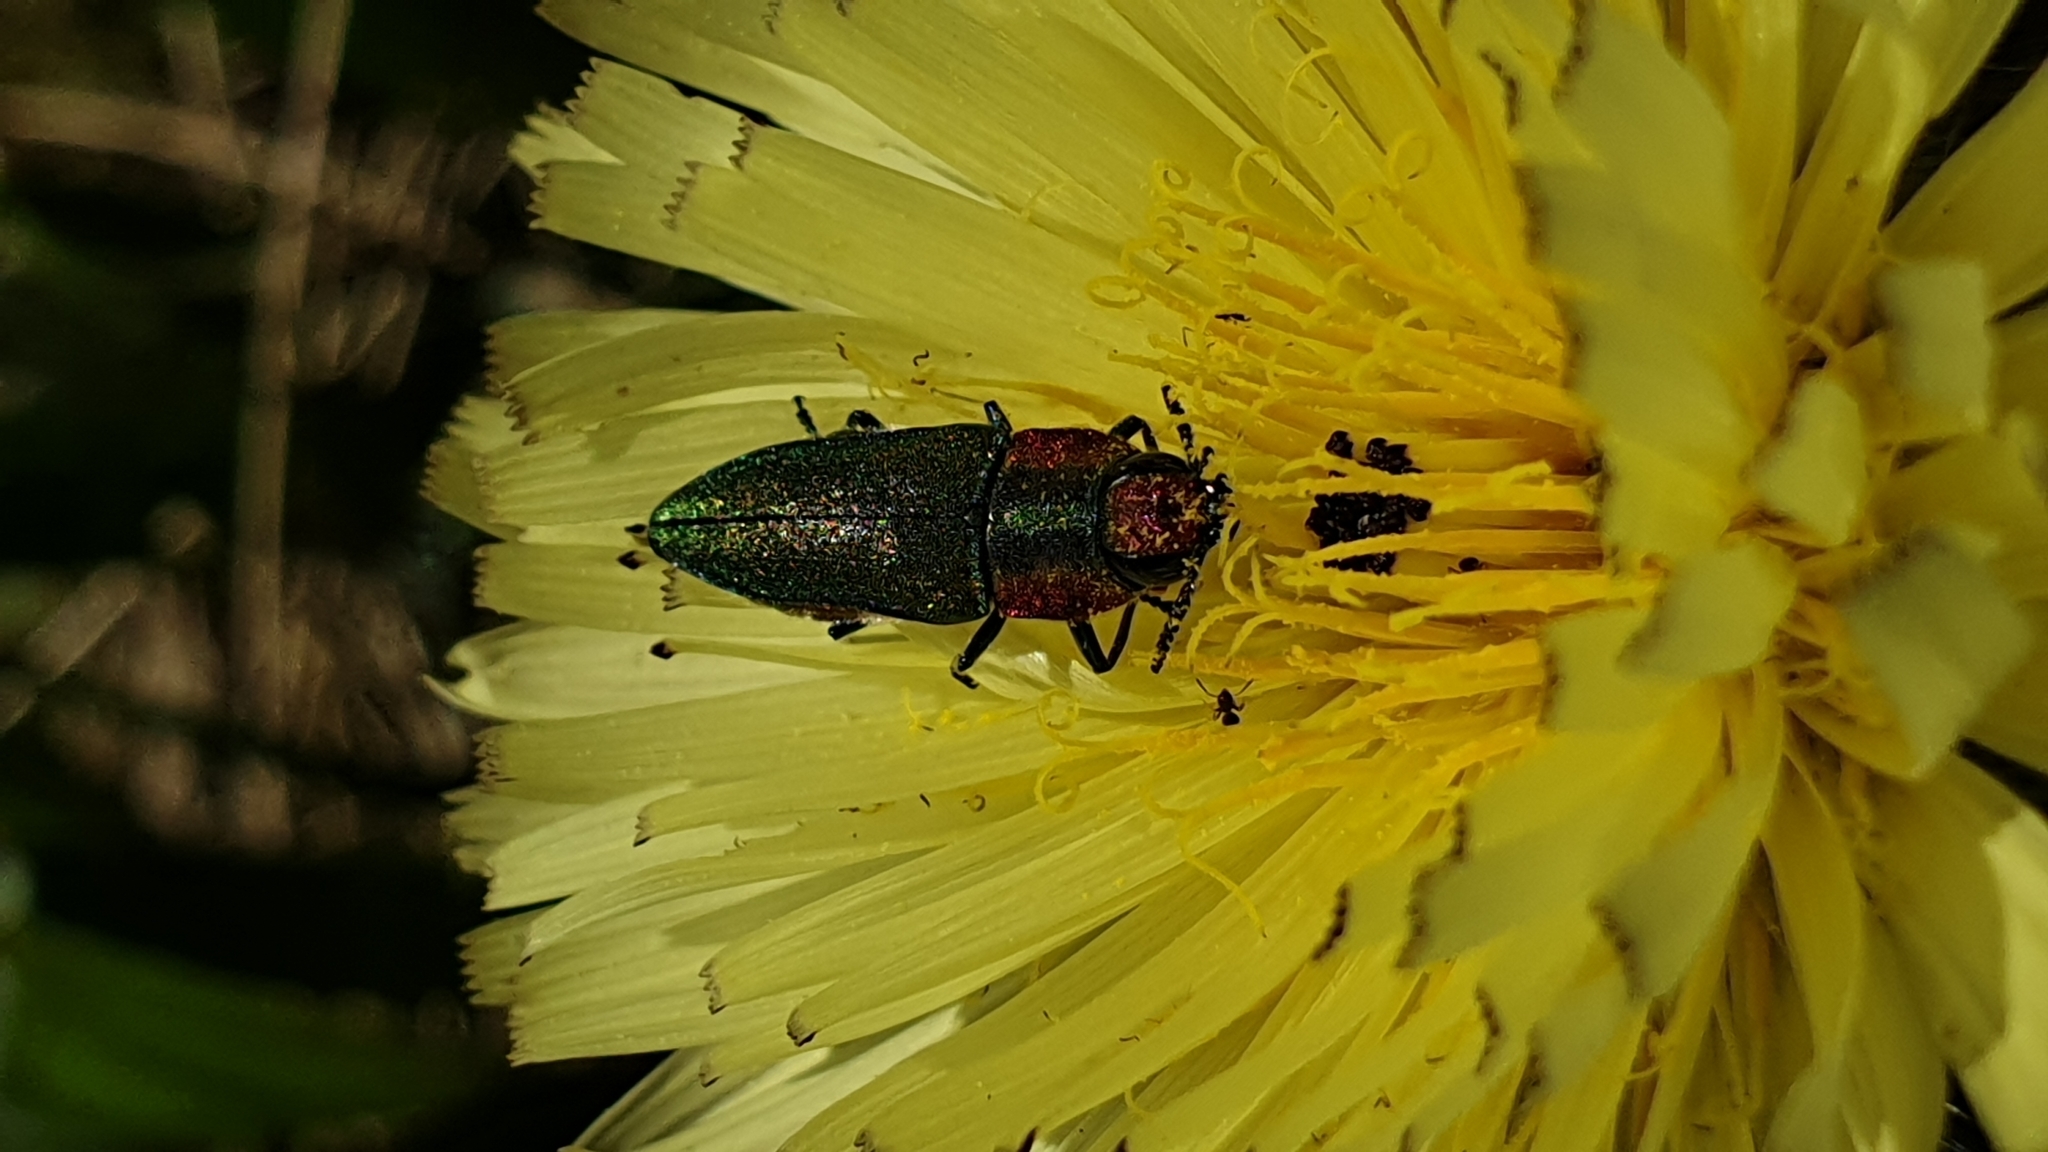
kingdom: Animalia
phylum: Arthropoda
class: Insecta
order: Coleoptera
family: Buprestidae
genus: Anthaxia
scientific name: Anthaxia hungarica
